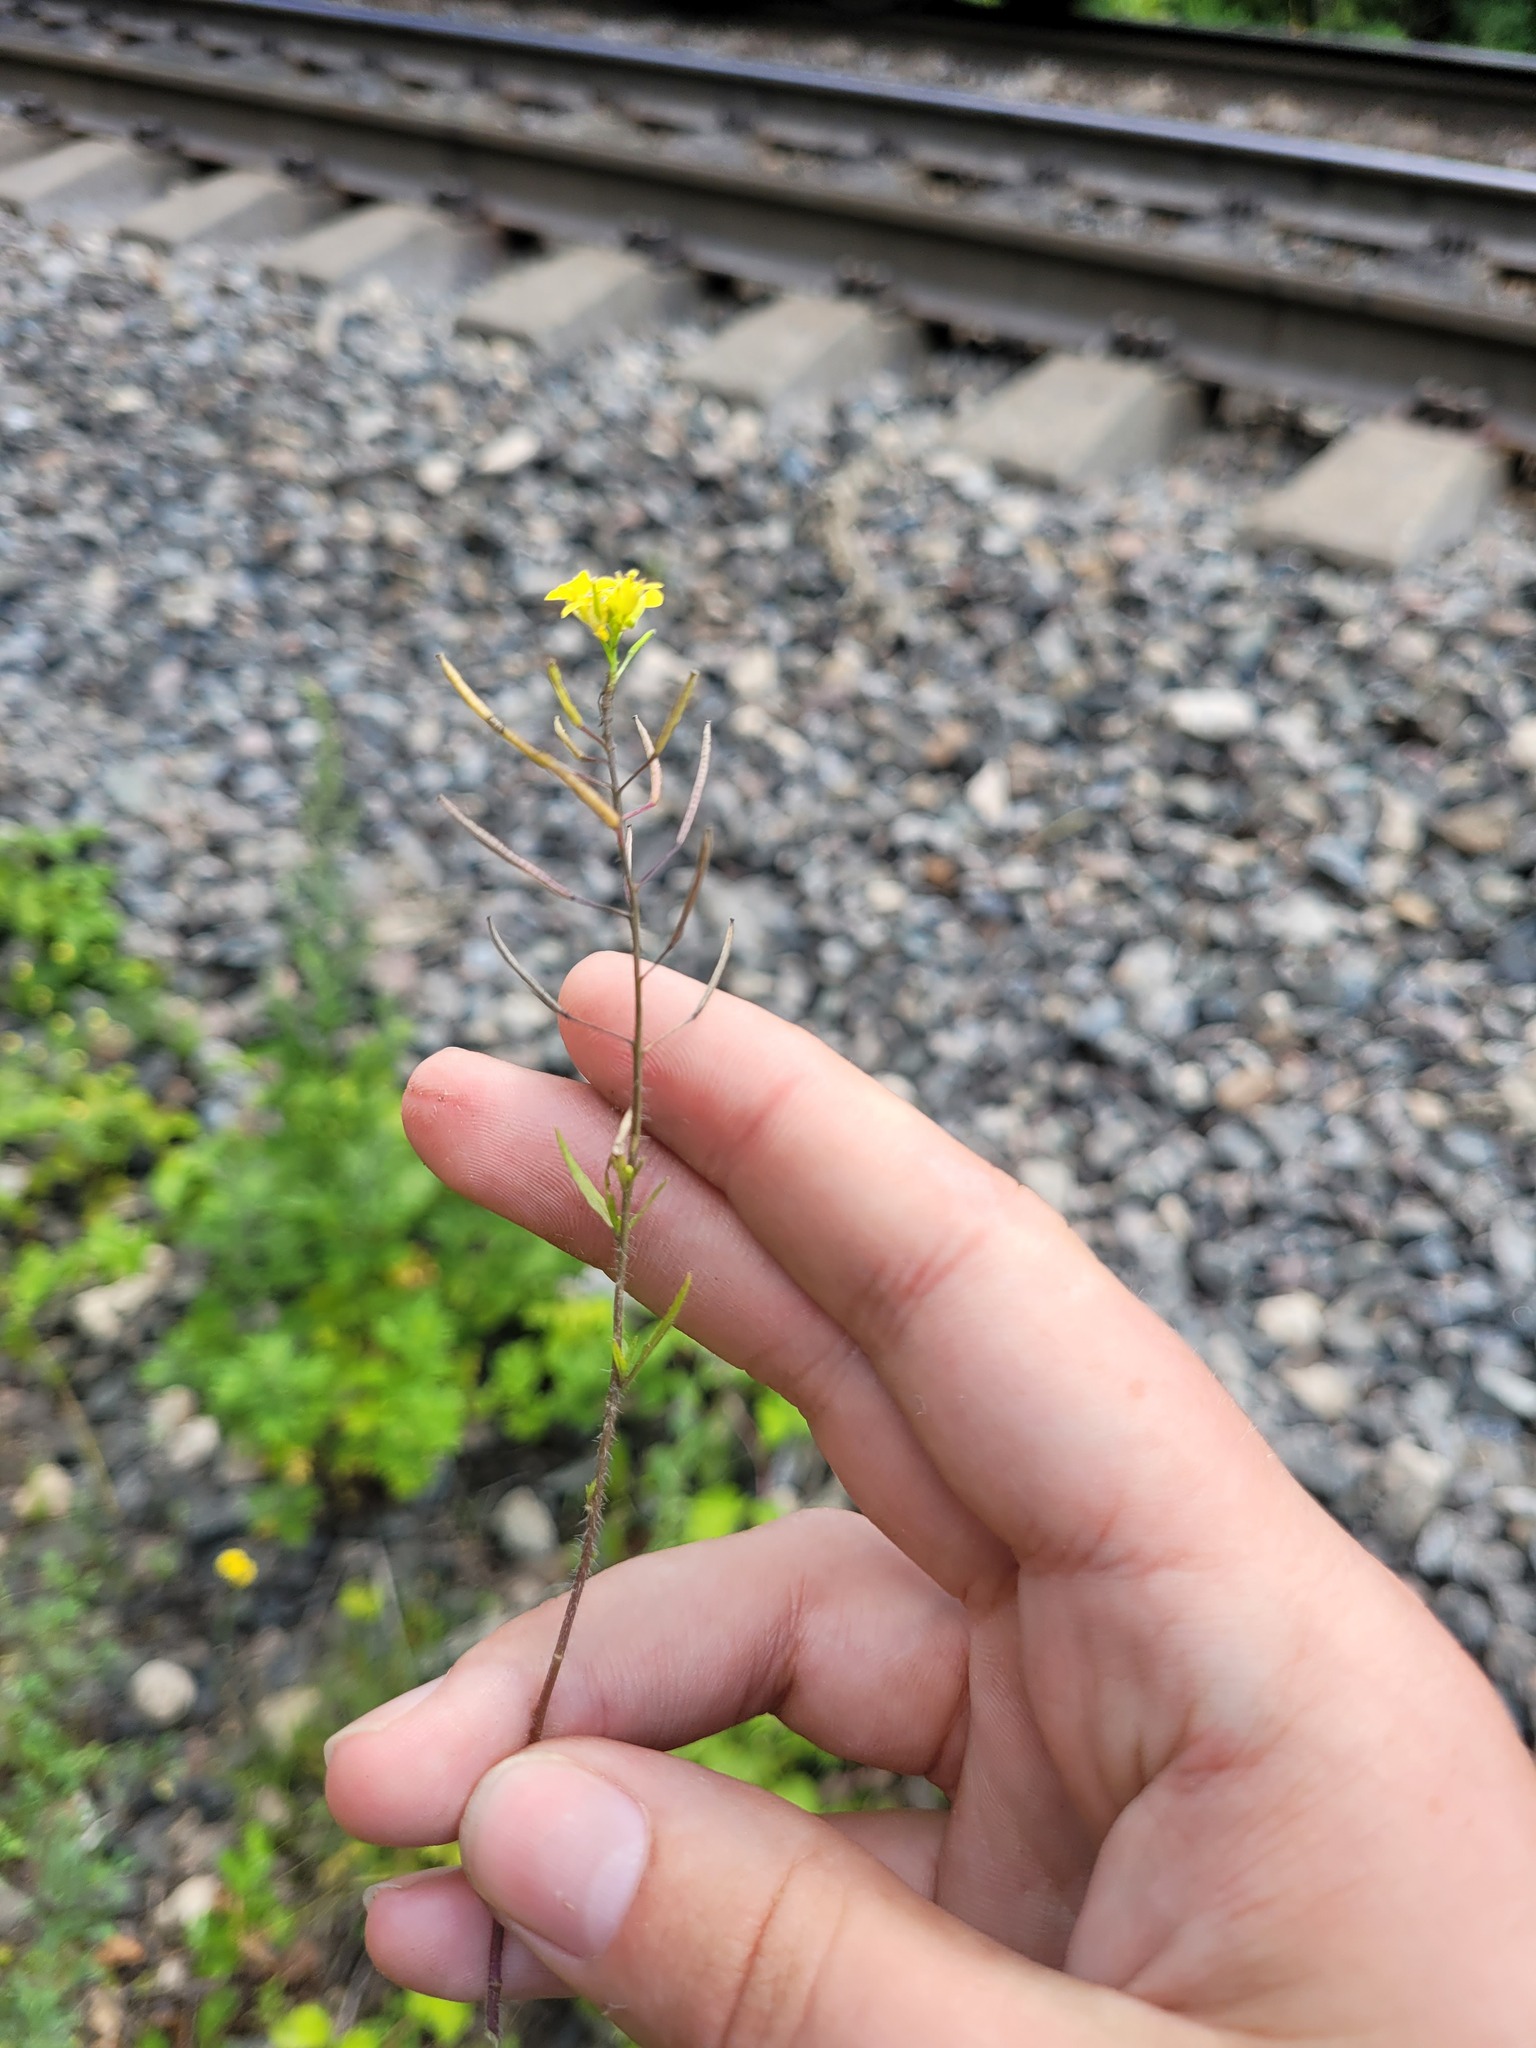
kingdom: Plantae
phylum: Tracheophyta
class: Magnoliopsida
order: Brassicales
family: Brassicaceae
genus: Sisymbrium
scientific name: Sisymbrium loeselii
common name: False london-rocket
